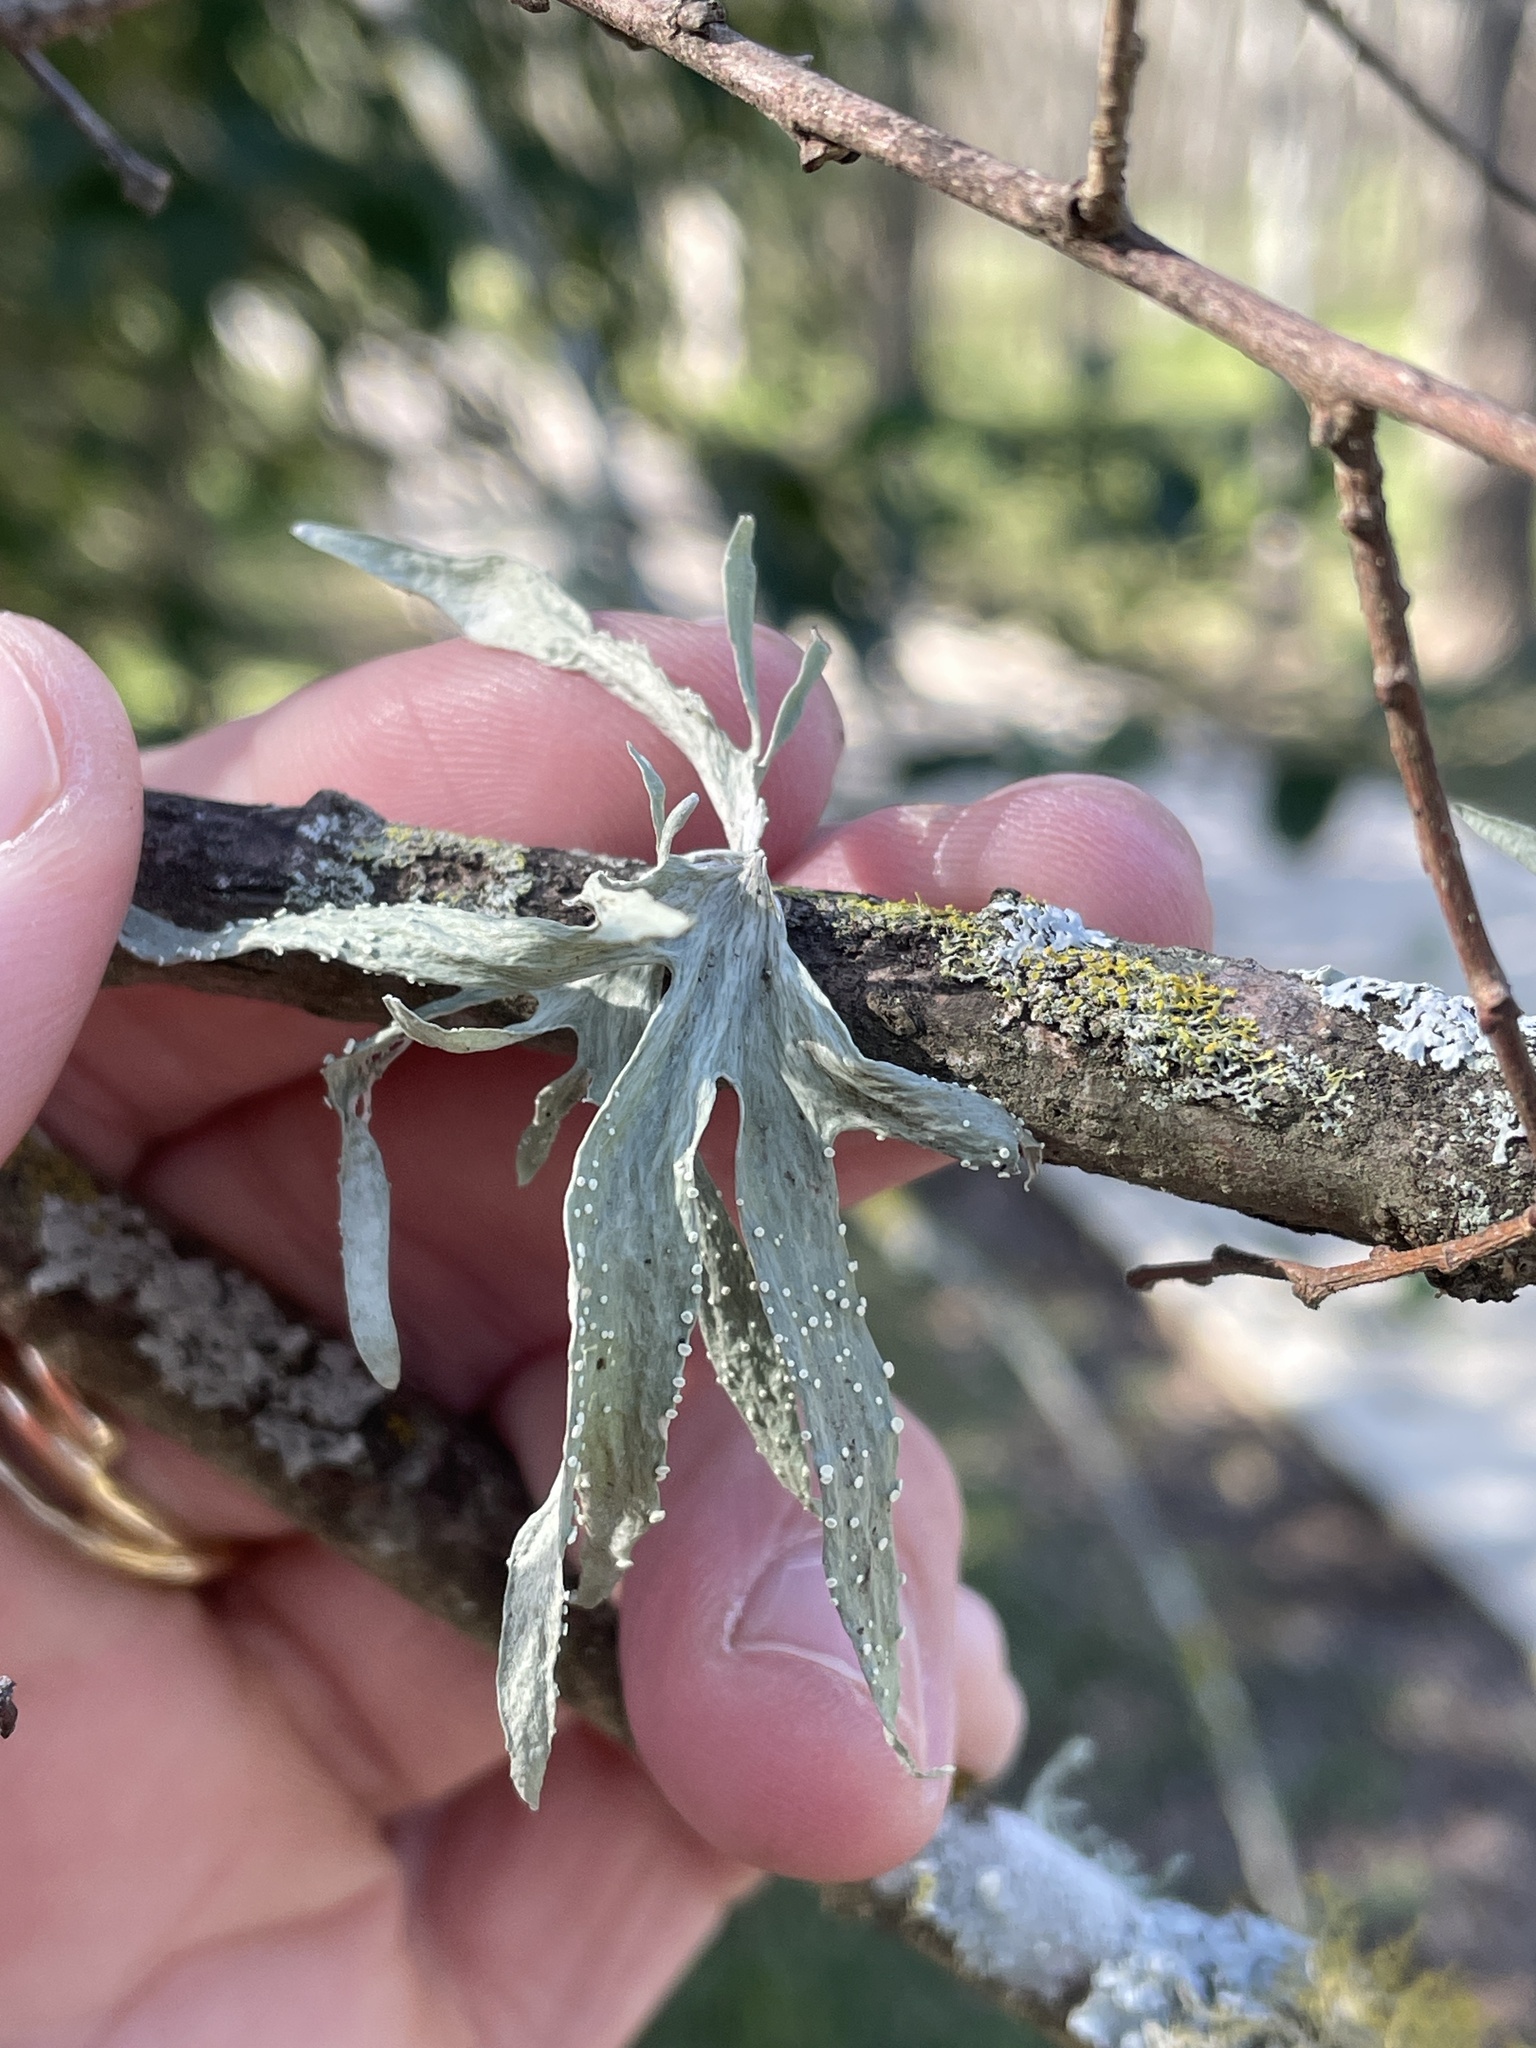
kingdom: Fungi
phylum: Ascomycota
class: Lecanoromycetes
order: Lecanorales
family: Ramalinaceae
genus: Ramalina
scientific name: Ramalina celastri
